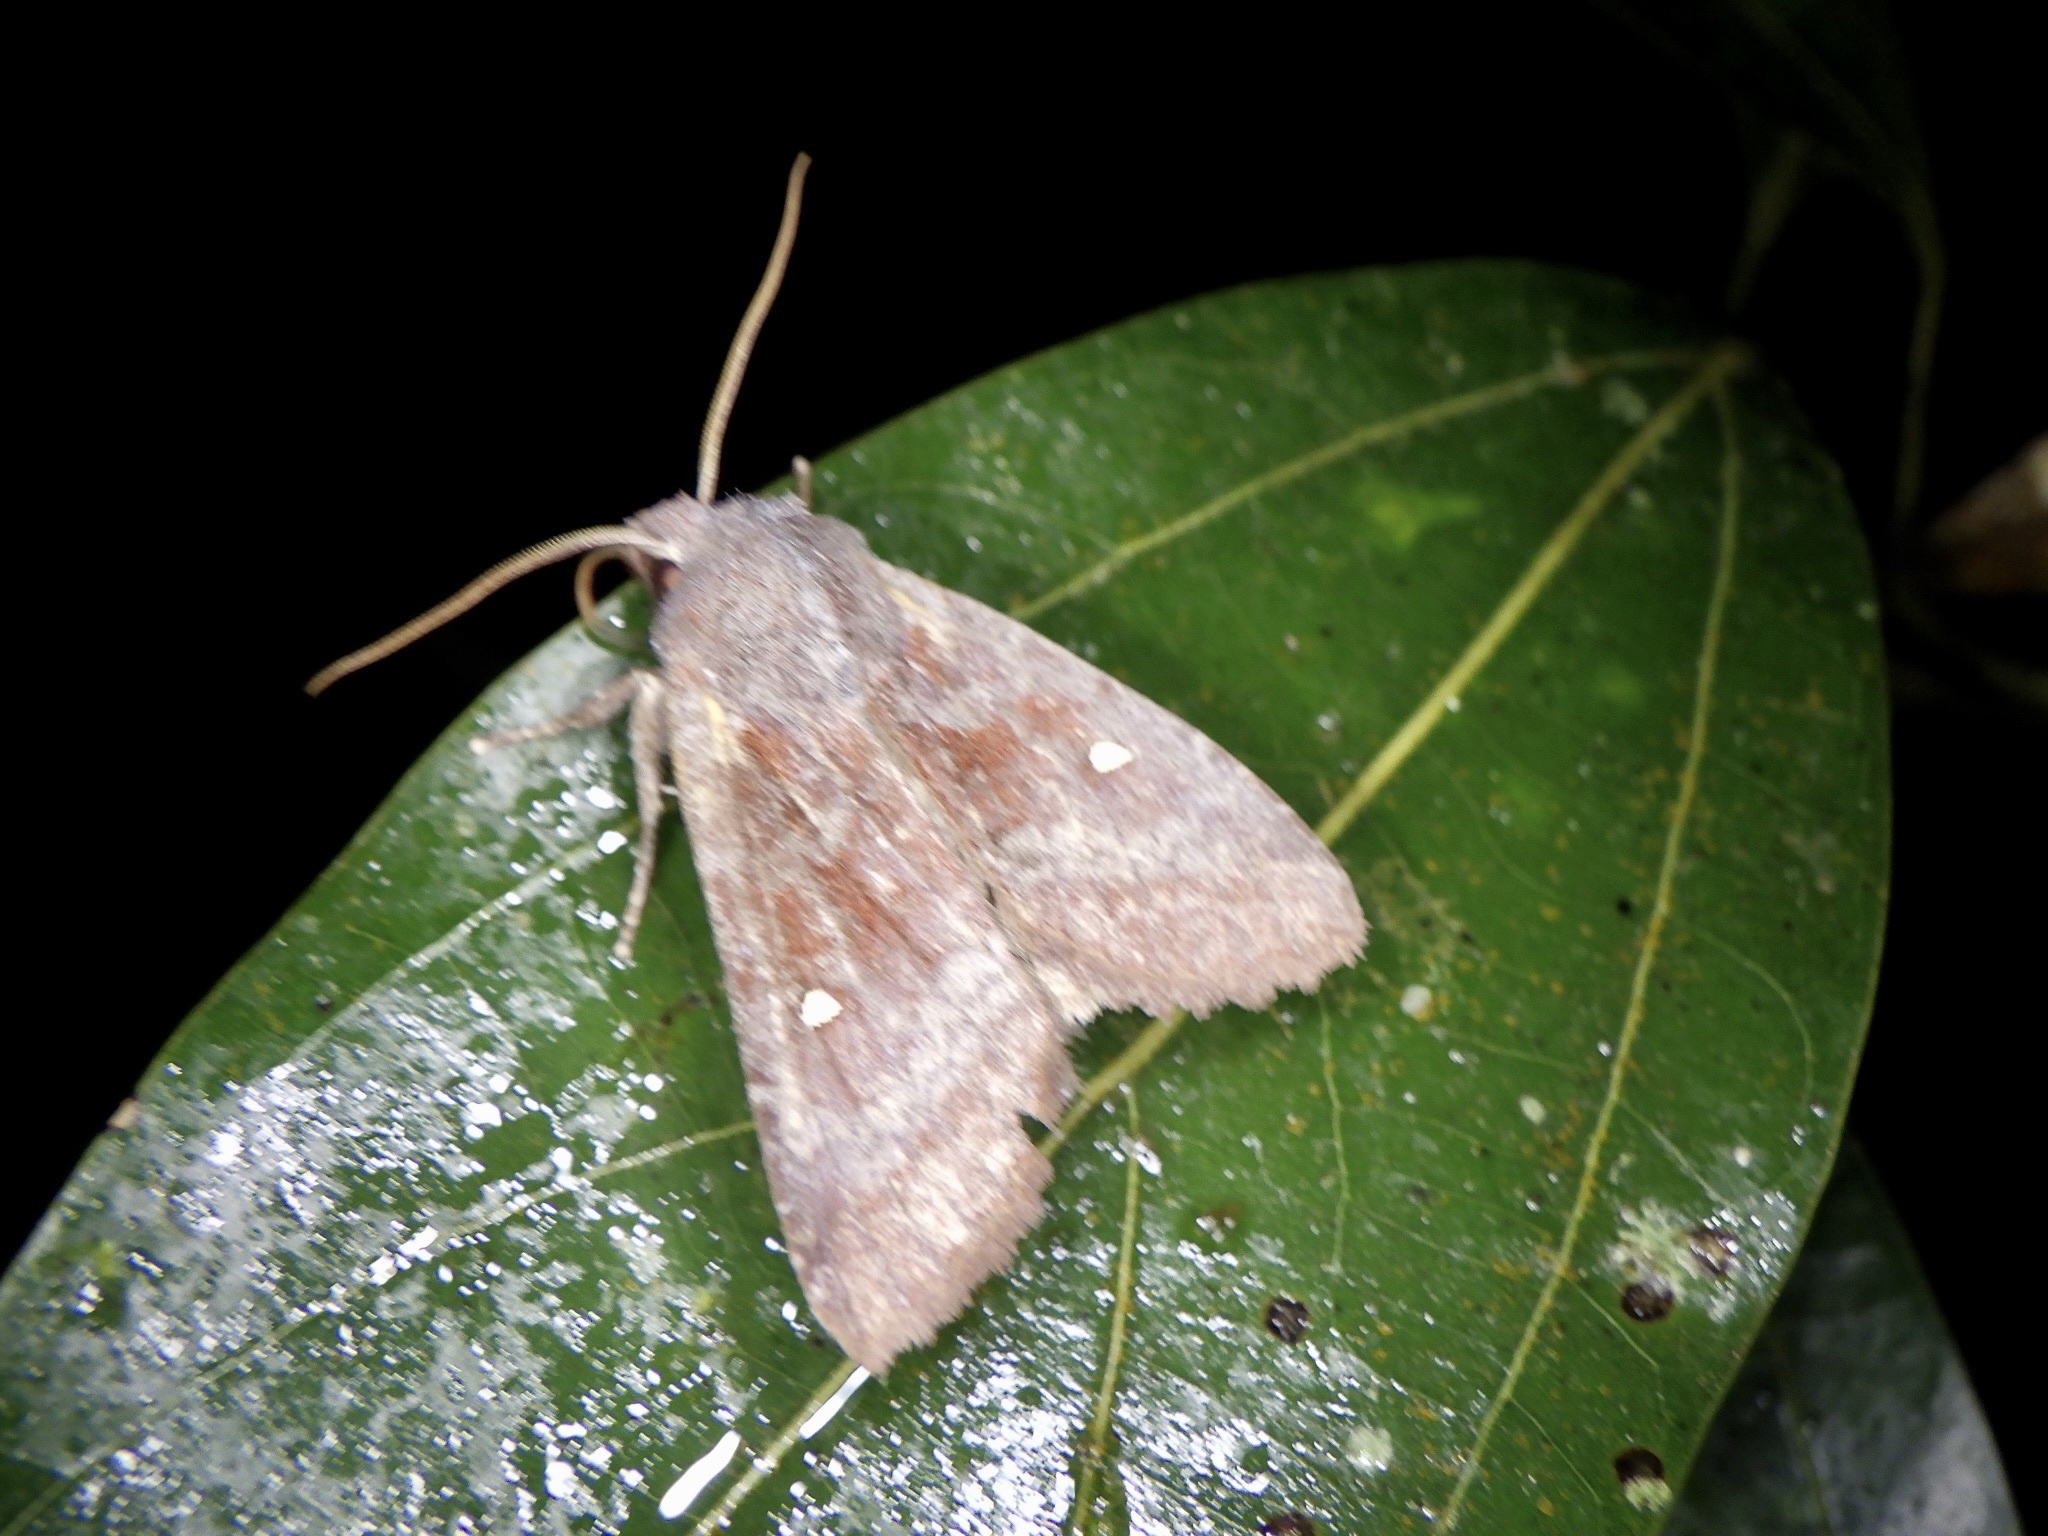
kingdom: Animalia
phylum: Arthropoda
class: Insecta
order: Lepidoptera
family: Noctuidae
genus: Eupsilia
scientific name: Eupsilia unipuncta
